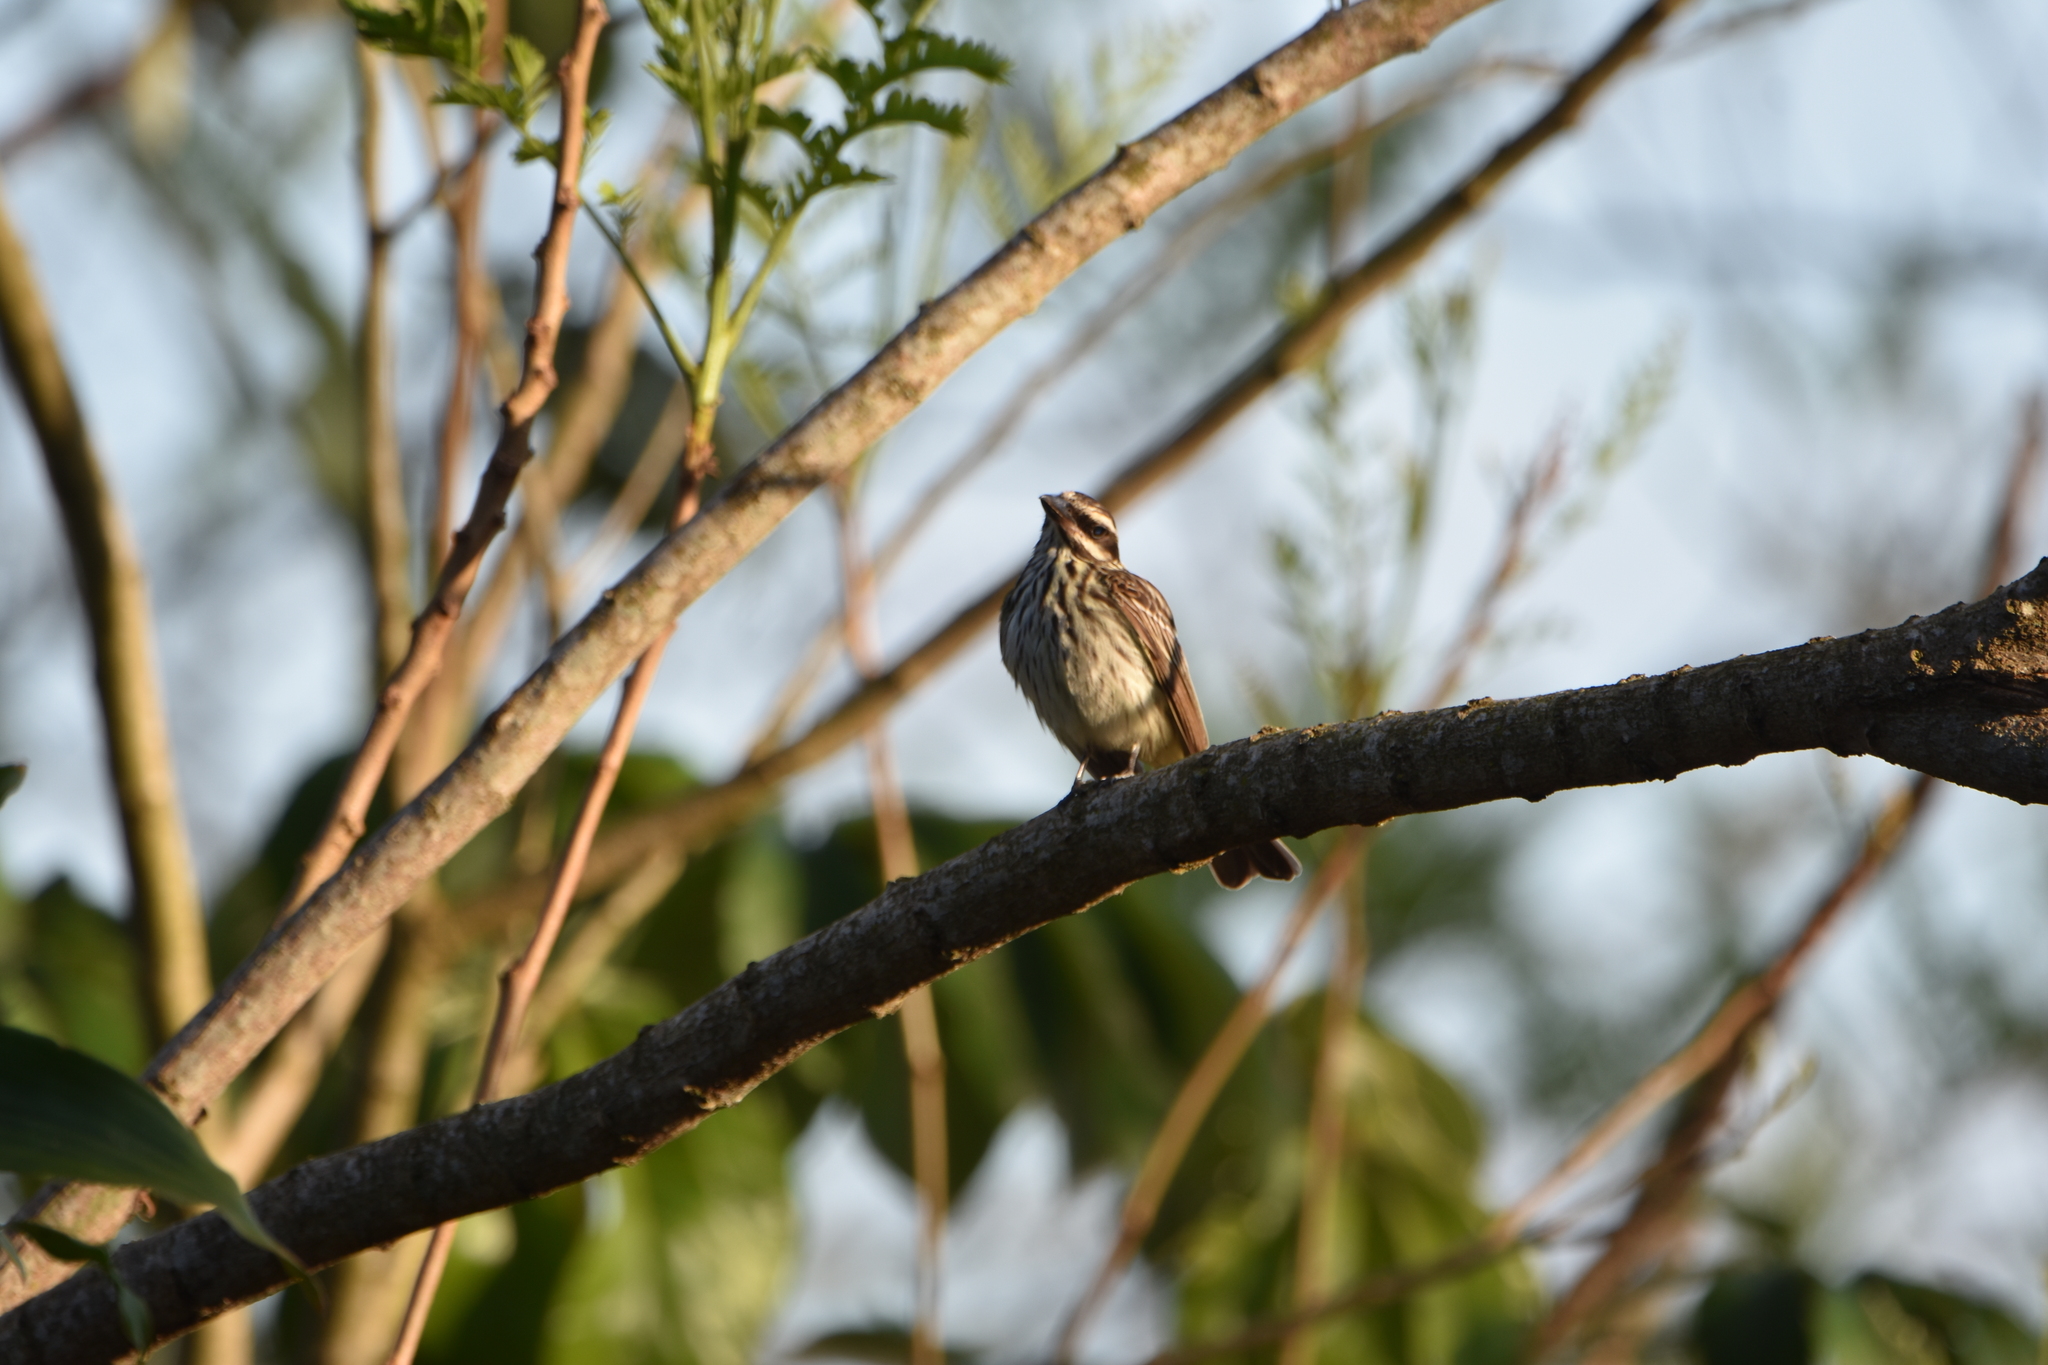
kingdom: Animalia
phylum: Chordata
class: Aves
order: Passeriformes
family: Tyrannidae
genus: Myiodynastes
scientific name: Myiodynastes maculatus
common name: Streaked flycatcher
